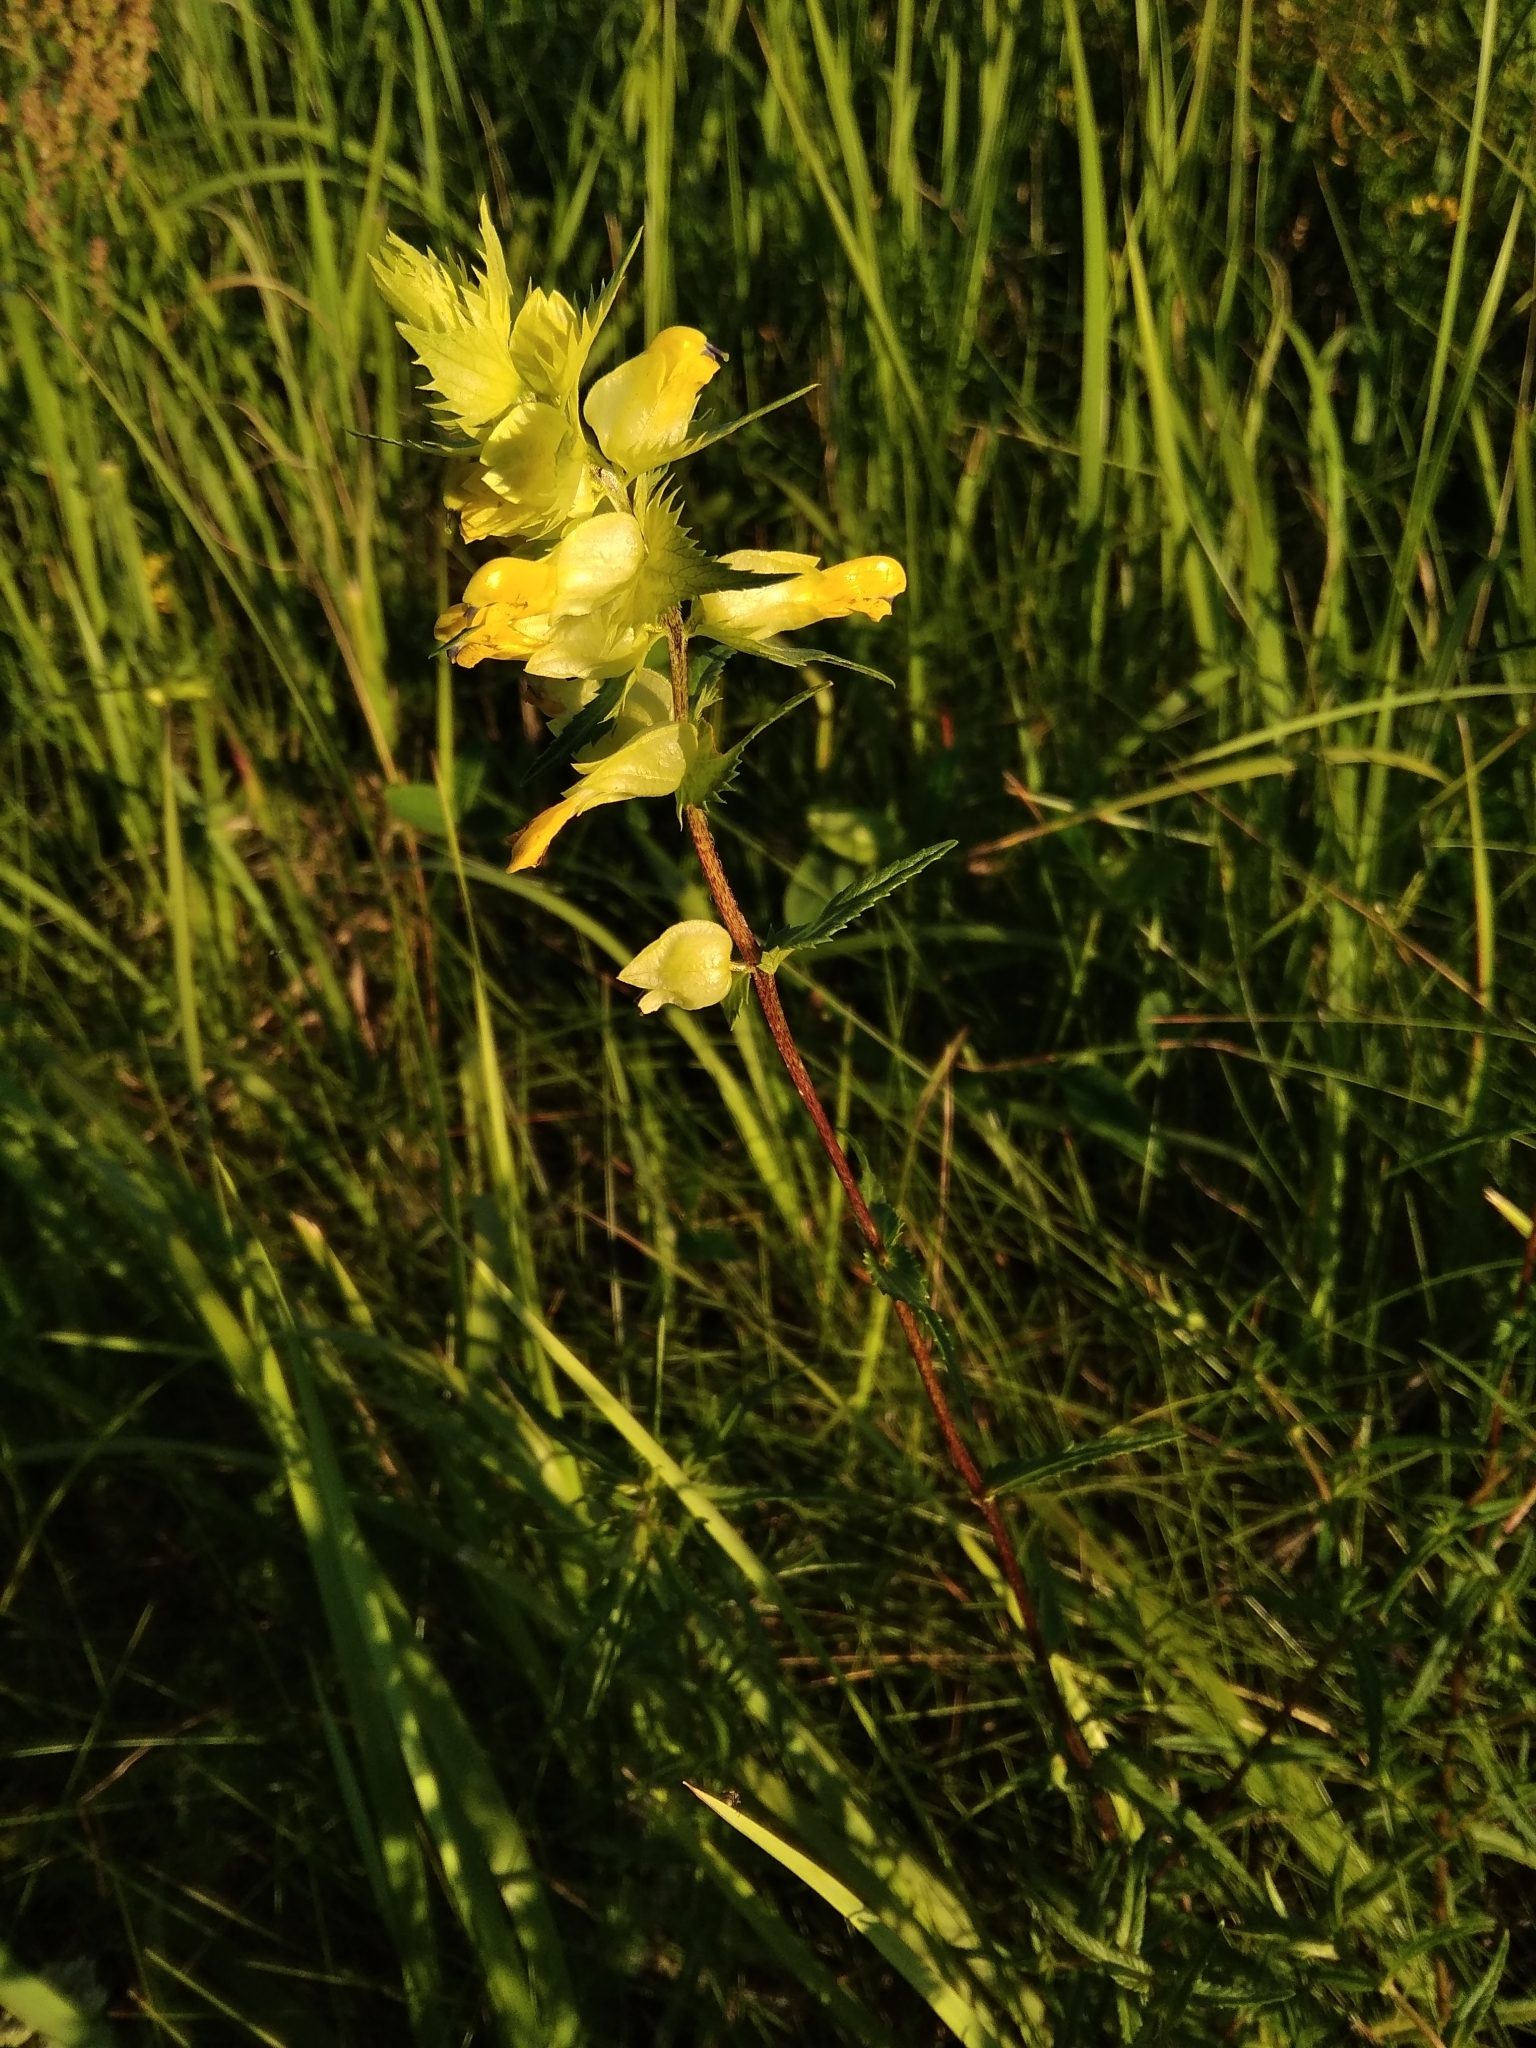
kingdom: Plantae
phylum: Tracheophyta
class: Magnoliopsida
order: Lamiales
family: Orobanchaceae
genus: Rhinanthus
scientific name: Rhinanthus serotinus
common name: Late-flowering yellow rattle
